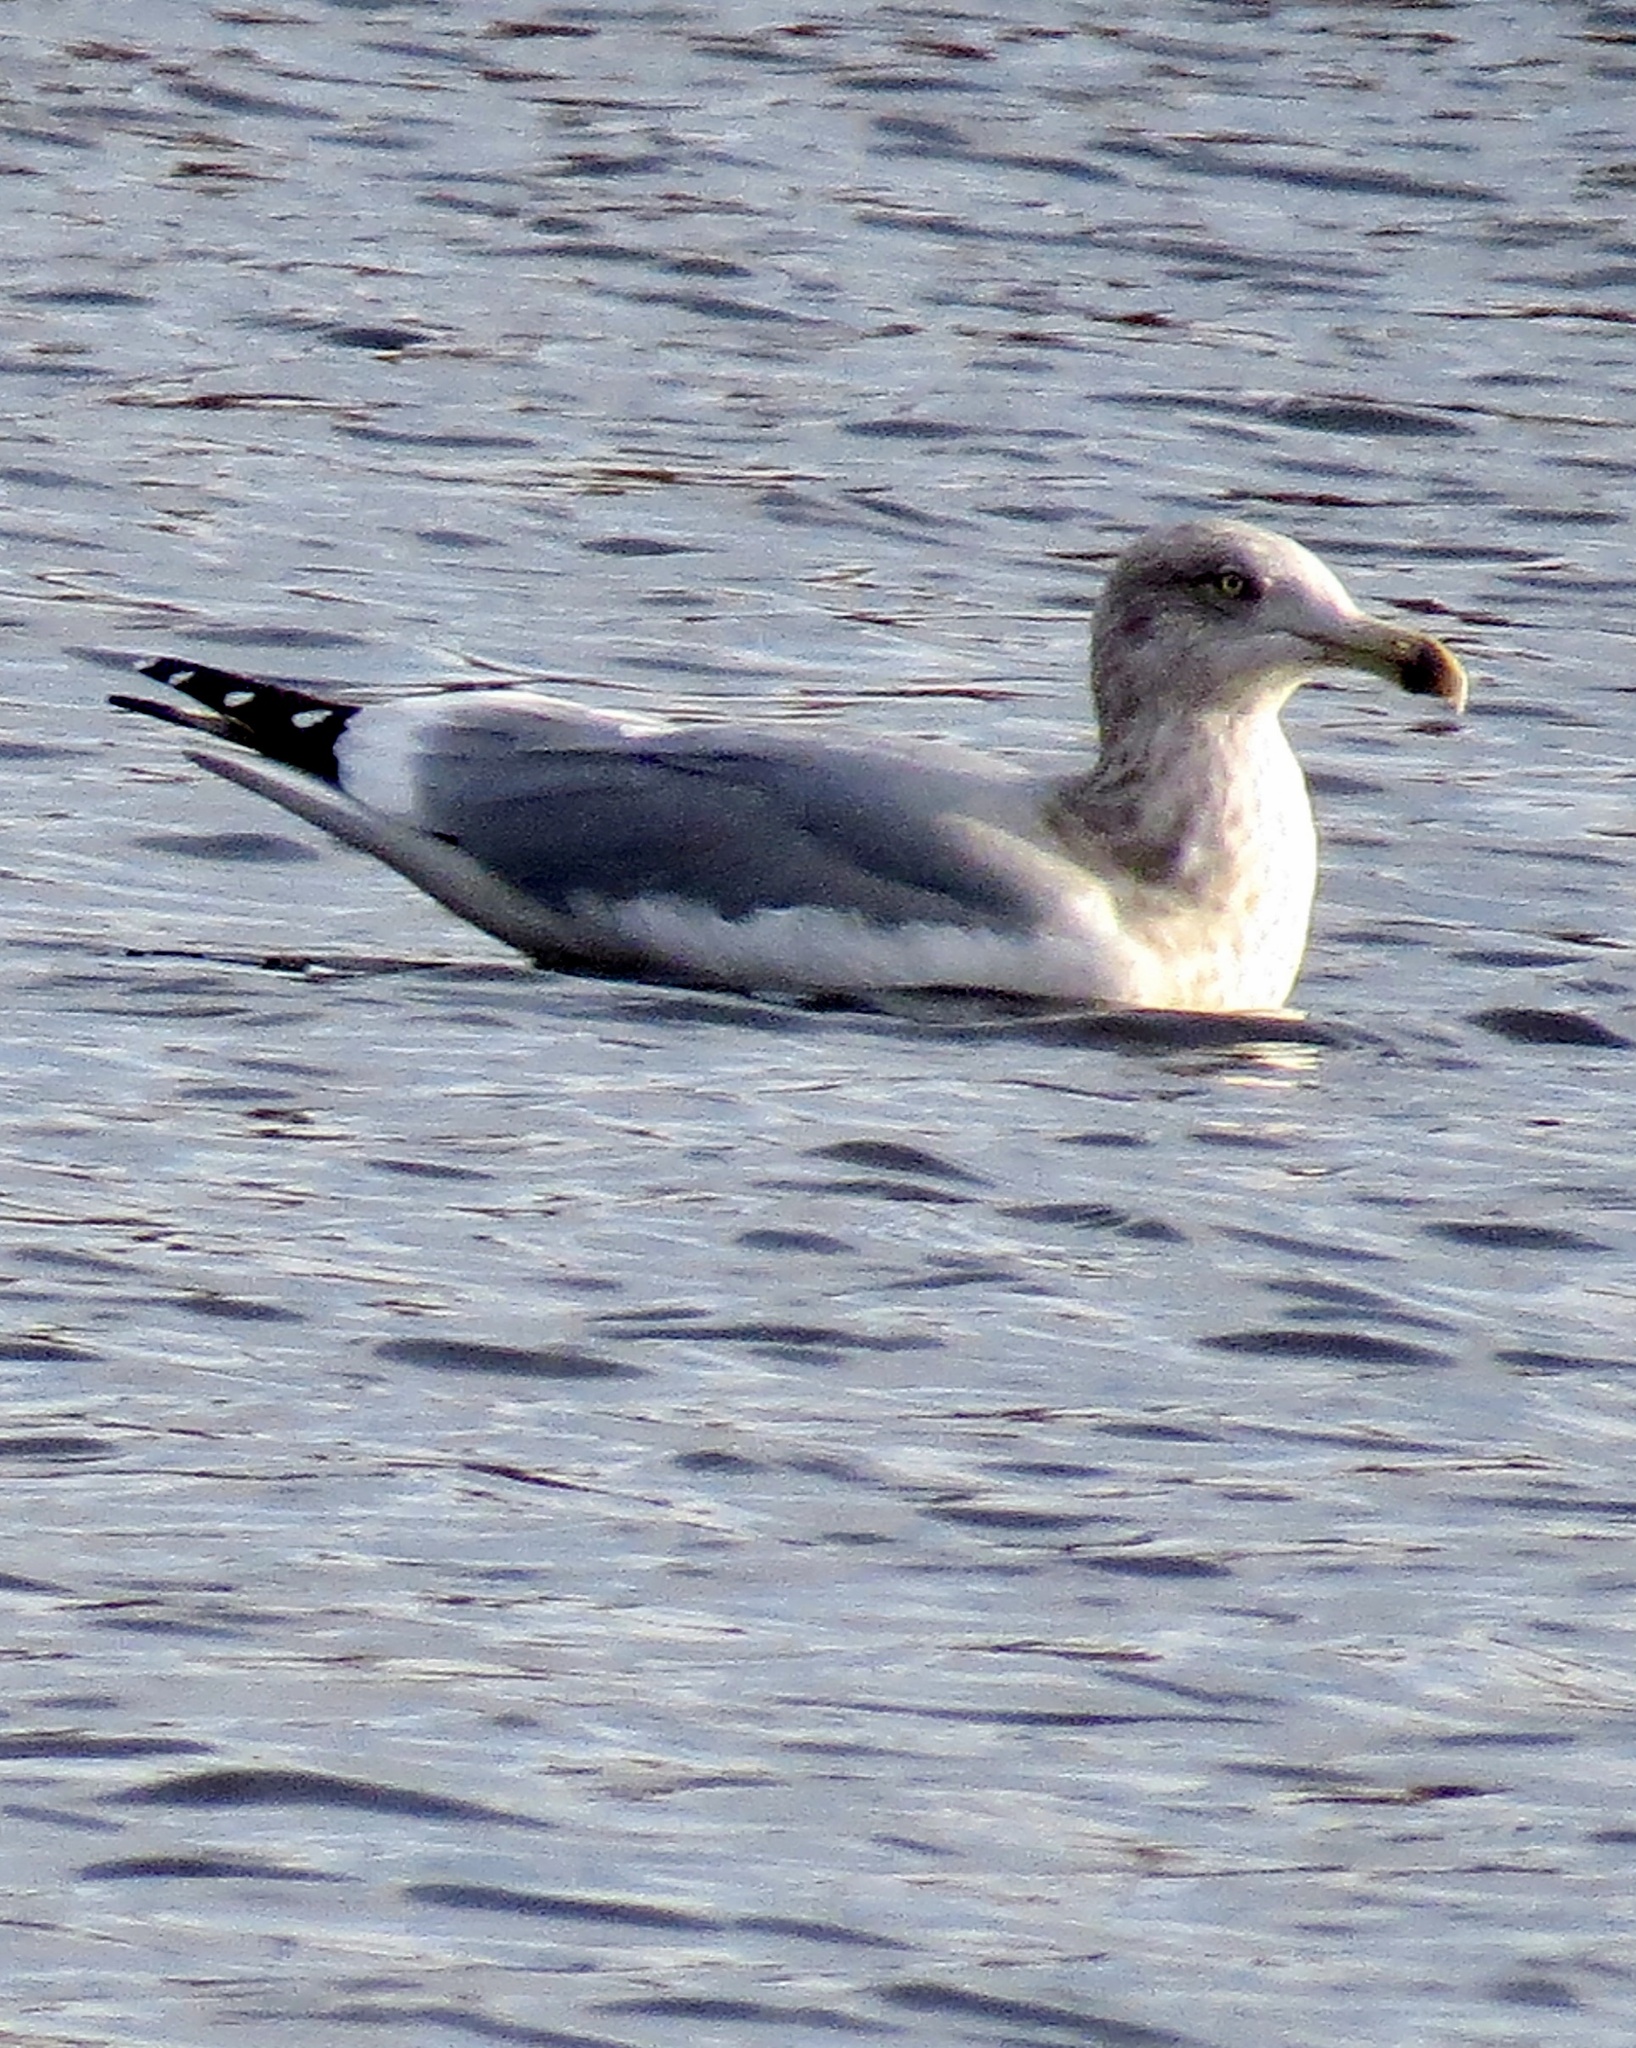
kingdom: Animalia
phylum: Chordata
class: Aves
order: Charadriiformes
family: Laridae
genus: Larus
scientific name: Larus argentatus
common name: Herring gull
